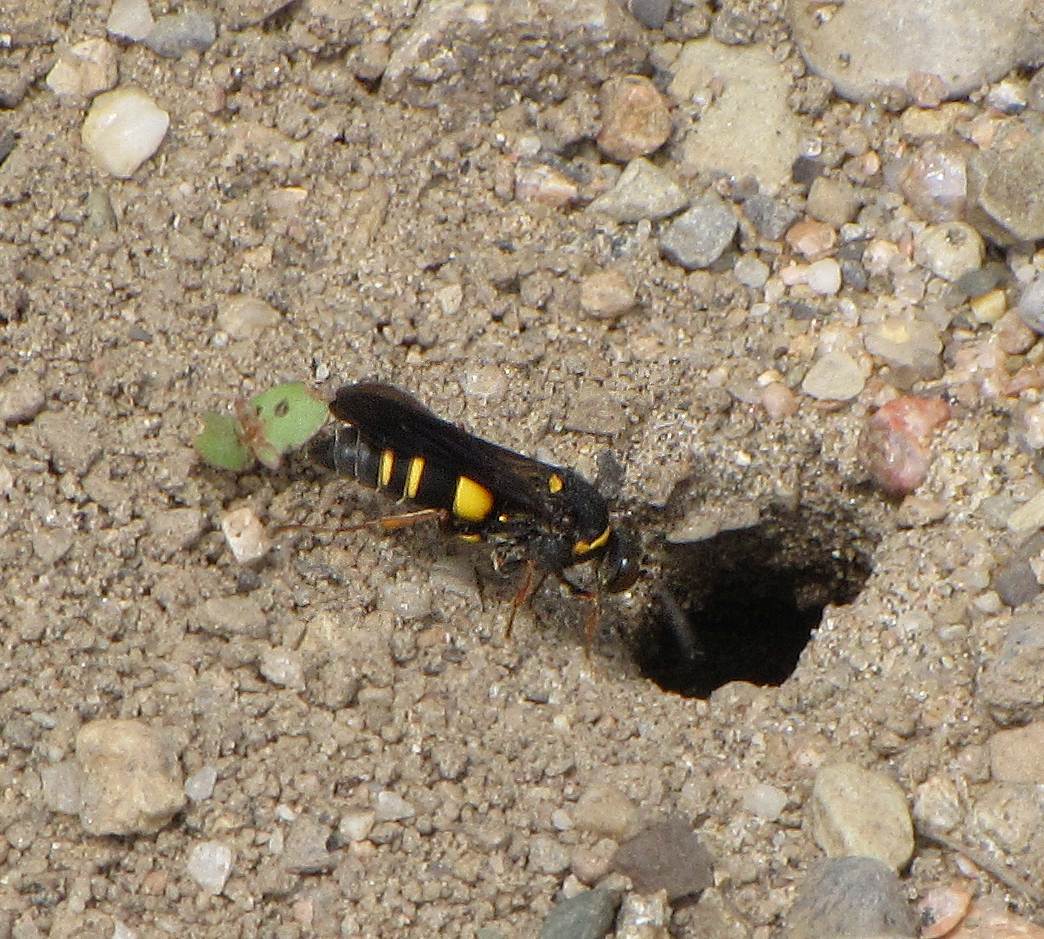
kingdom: Animalia
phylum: Arthropoda
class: Insecta
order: Hymenoptera
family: Crabronidae
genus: Nysson
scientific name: Nysson plagiatus
